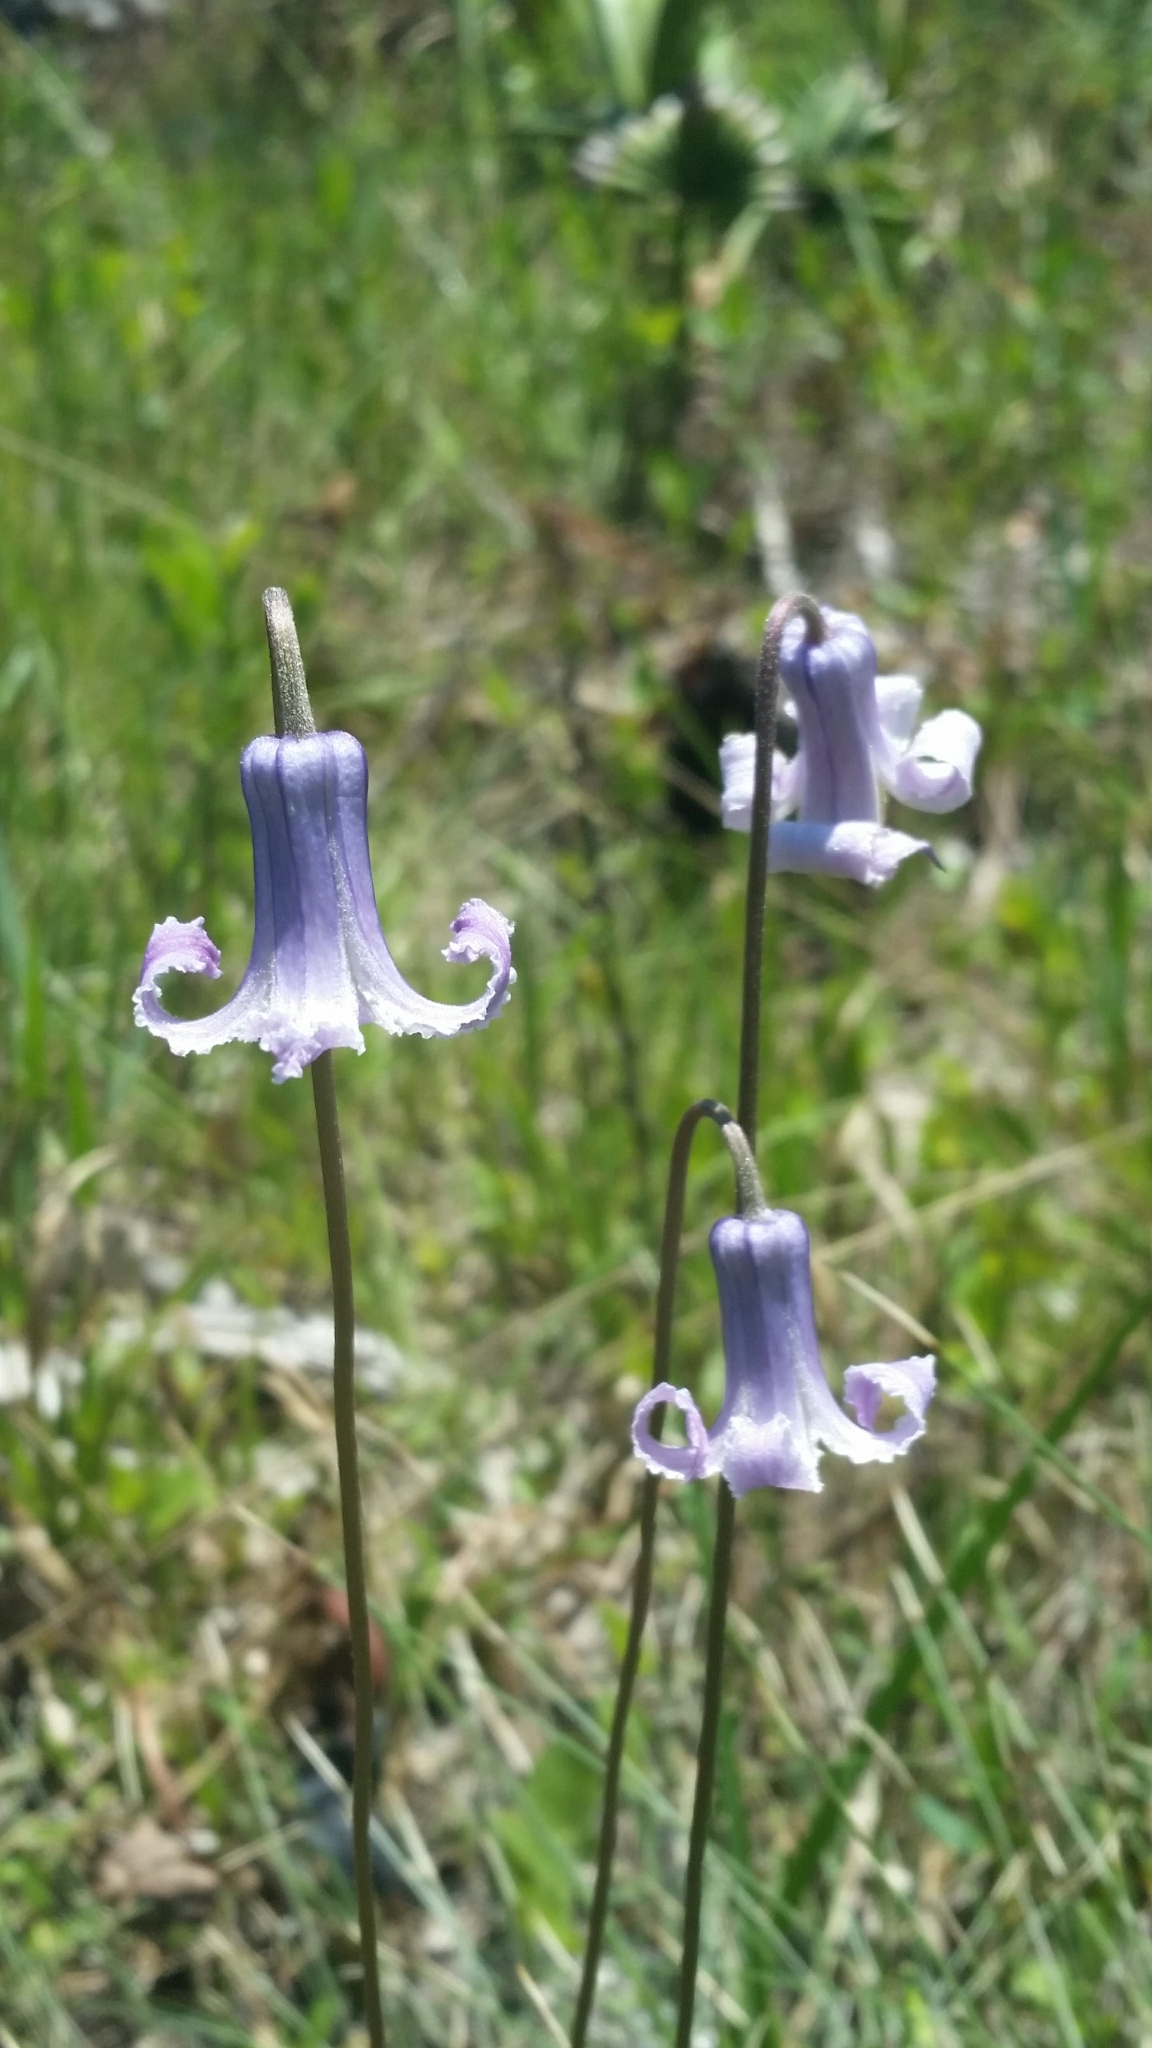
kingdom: Plantae
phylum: Tracheophyta
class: Magnoliopsida
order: Ranunculales
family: Ranunculaceae
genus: Clematis
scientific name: Clematis baldwinii
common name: Pine-hyacinth
